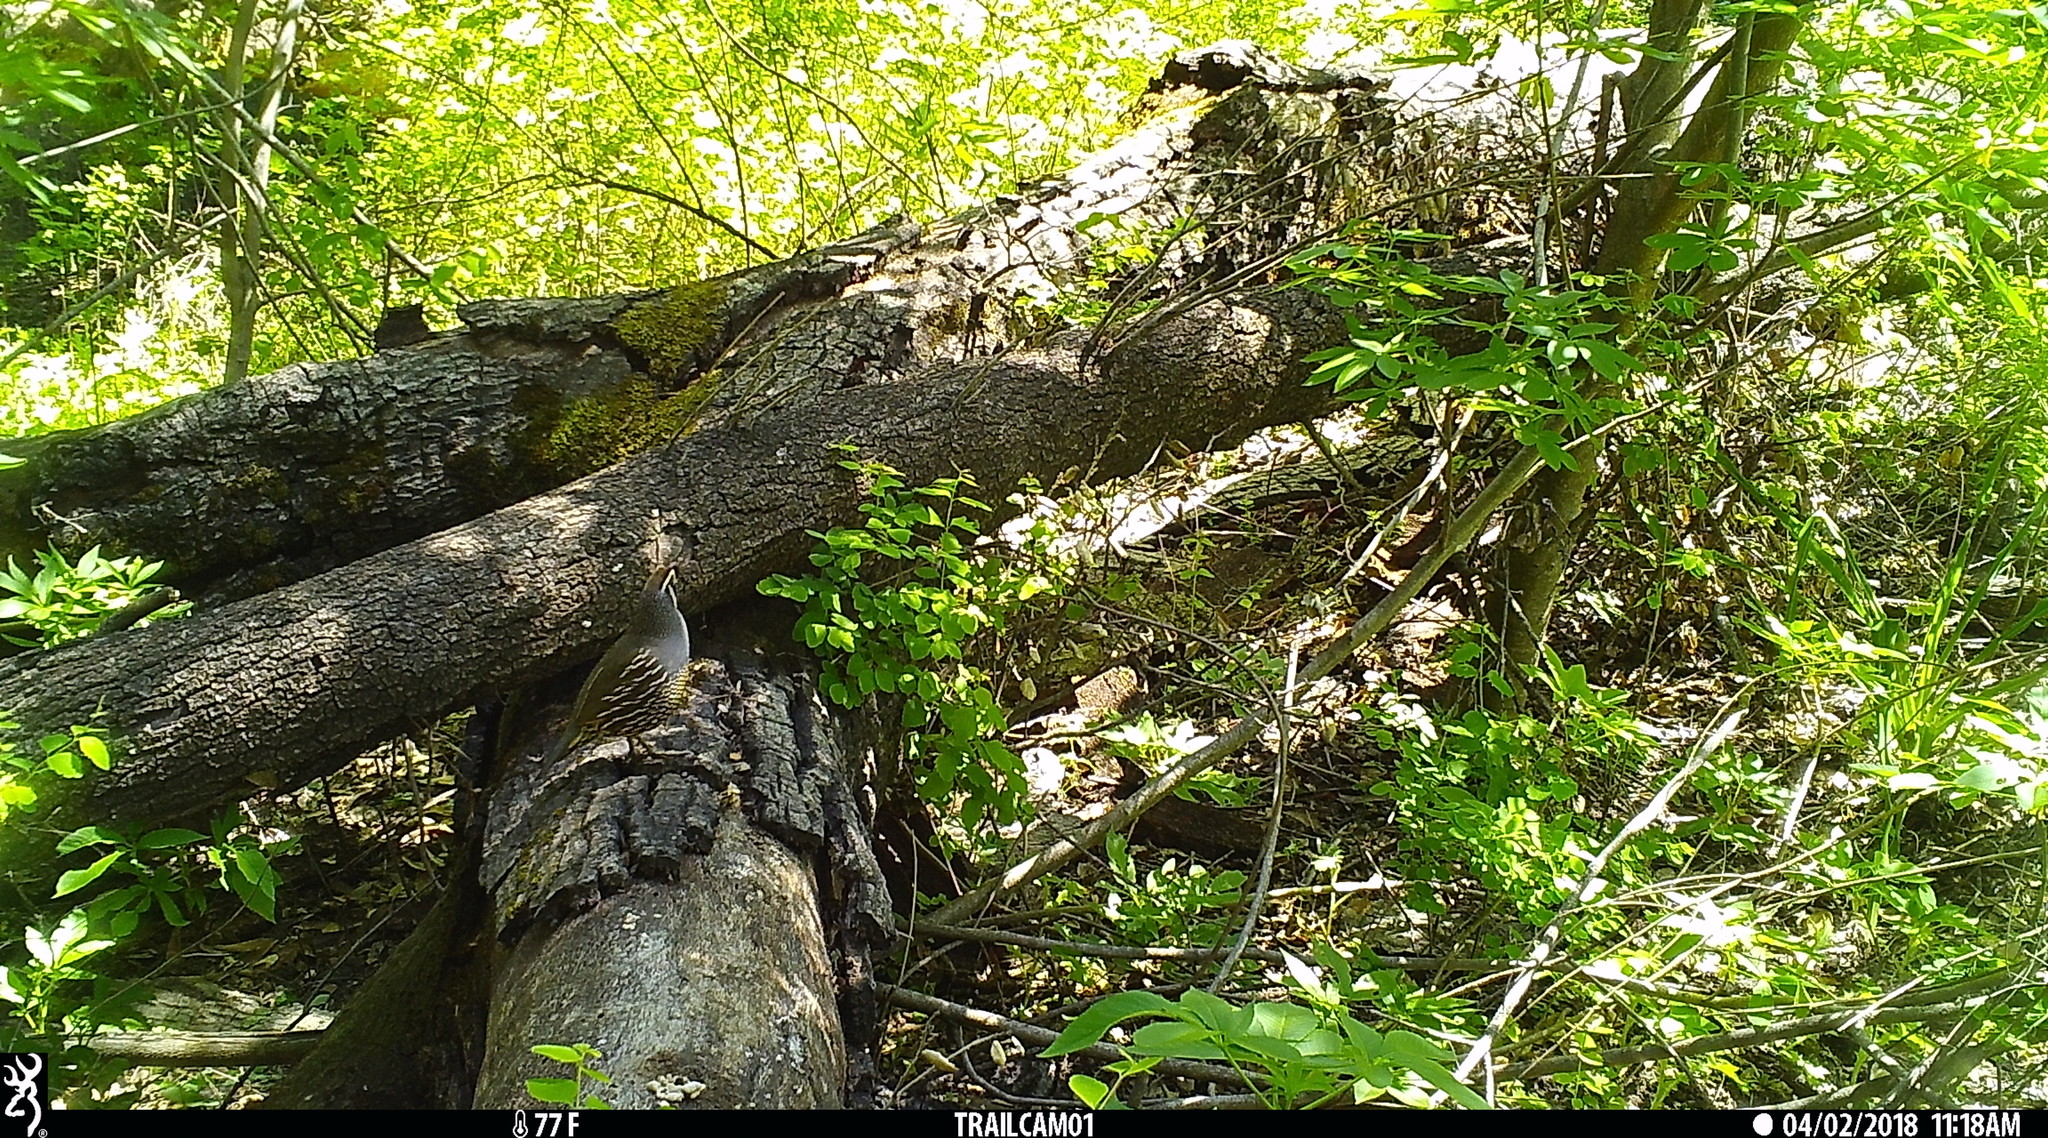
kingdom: Animalia
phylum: Chordata
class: Aves
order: Galliformes
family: Odontophoridae
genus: Callipepla
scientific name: Callipepla californica
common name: California quail
